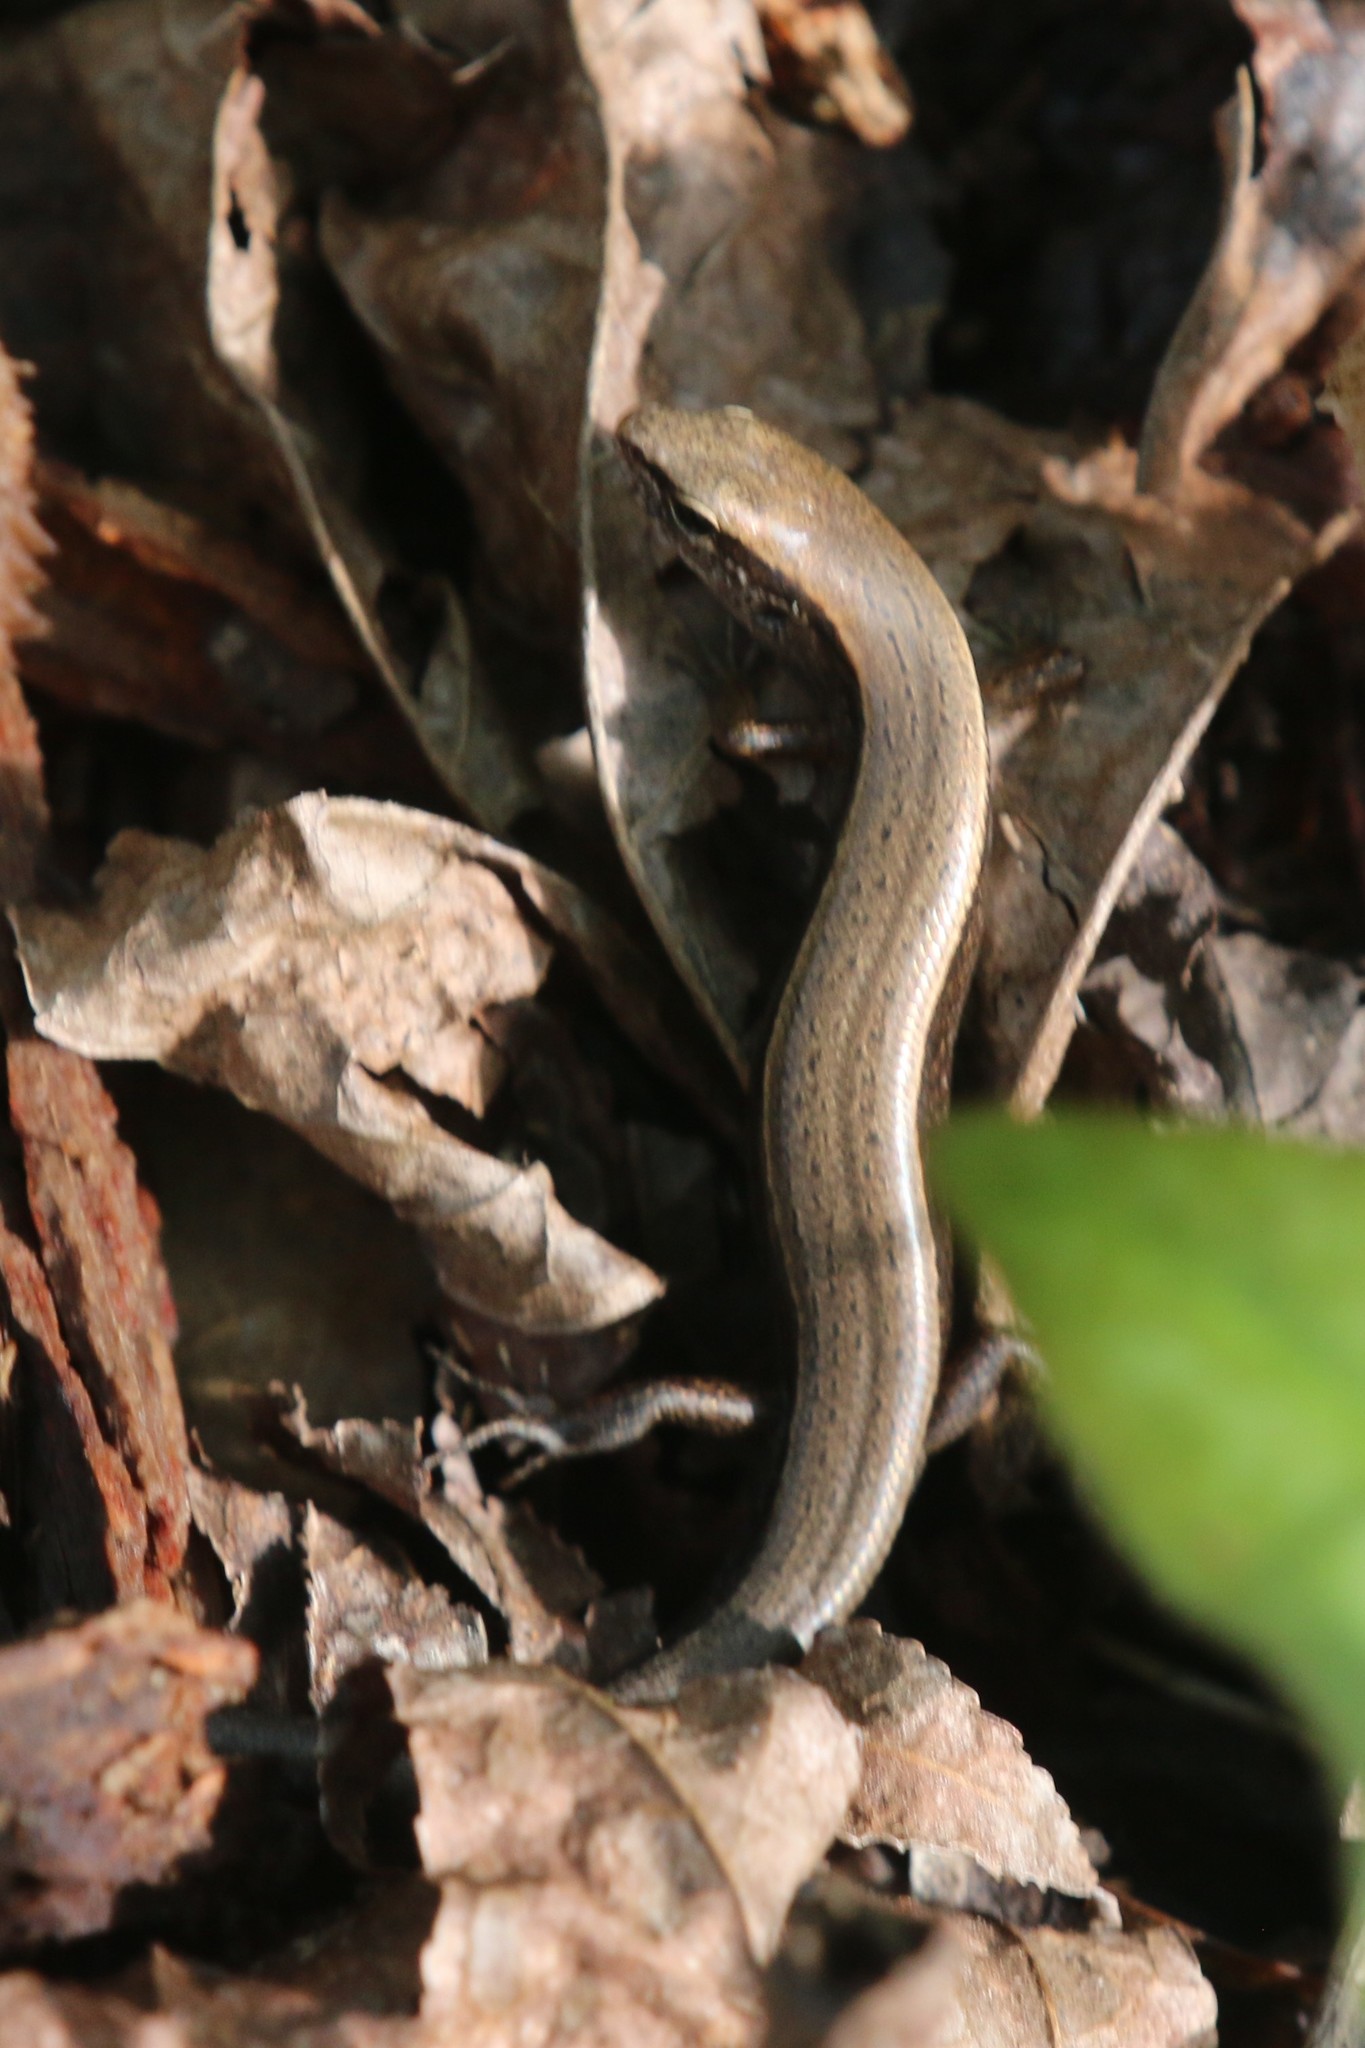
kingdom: Animalia
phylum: Chordata
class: Squamata
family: Scincidae
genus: Scincella
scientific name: Scincella lateralis
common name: Ground skink
